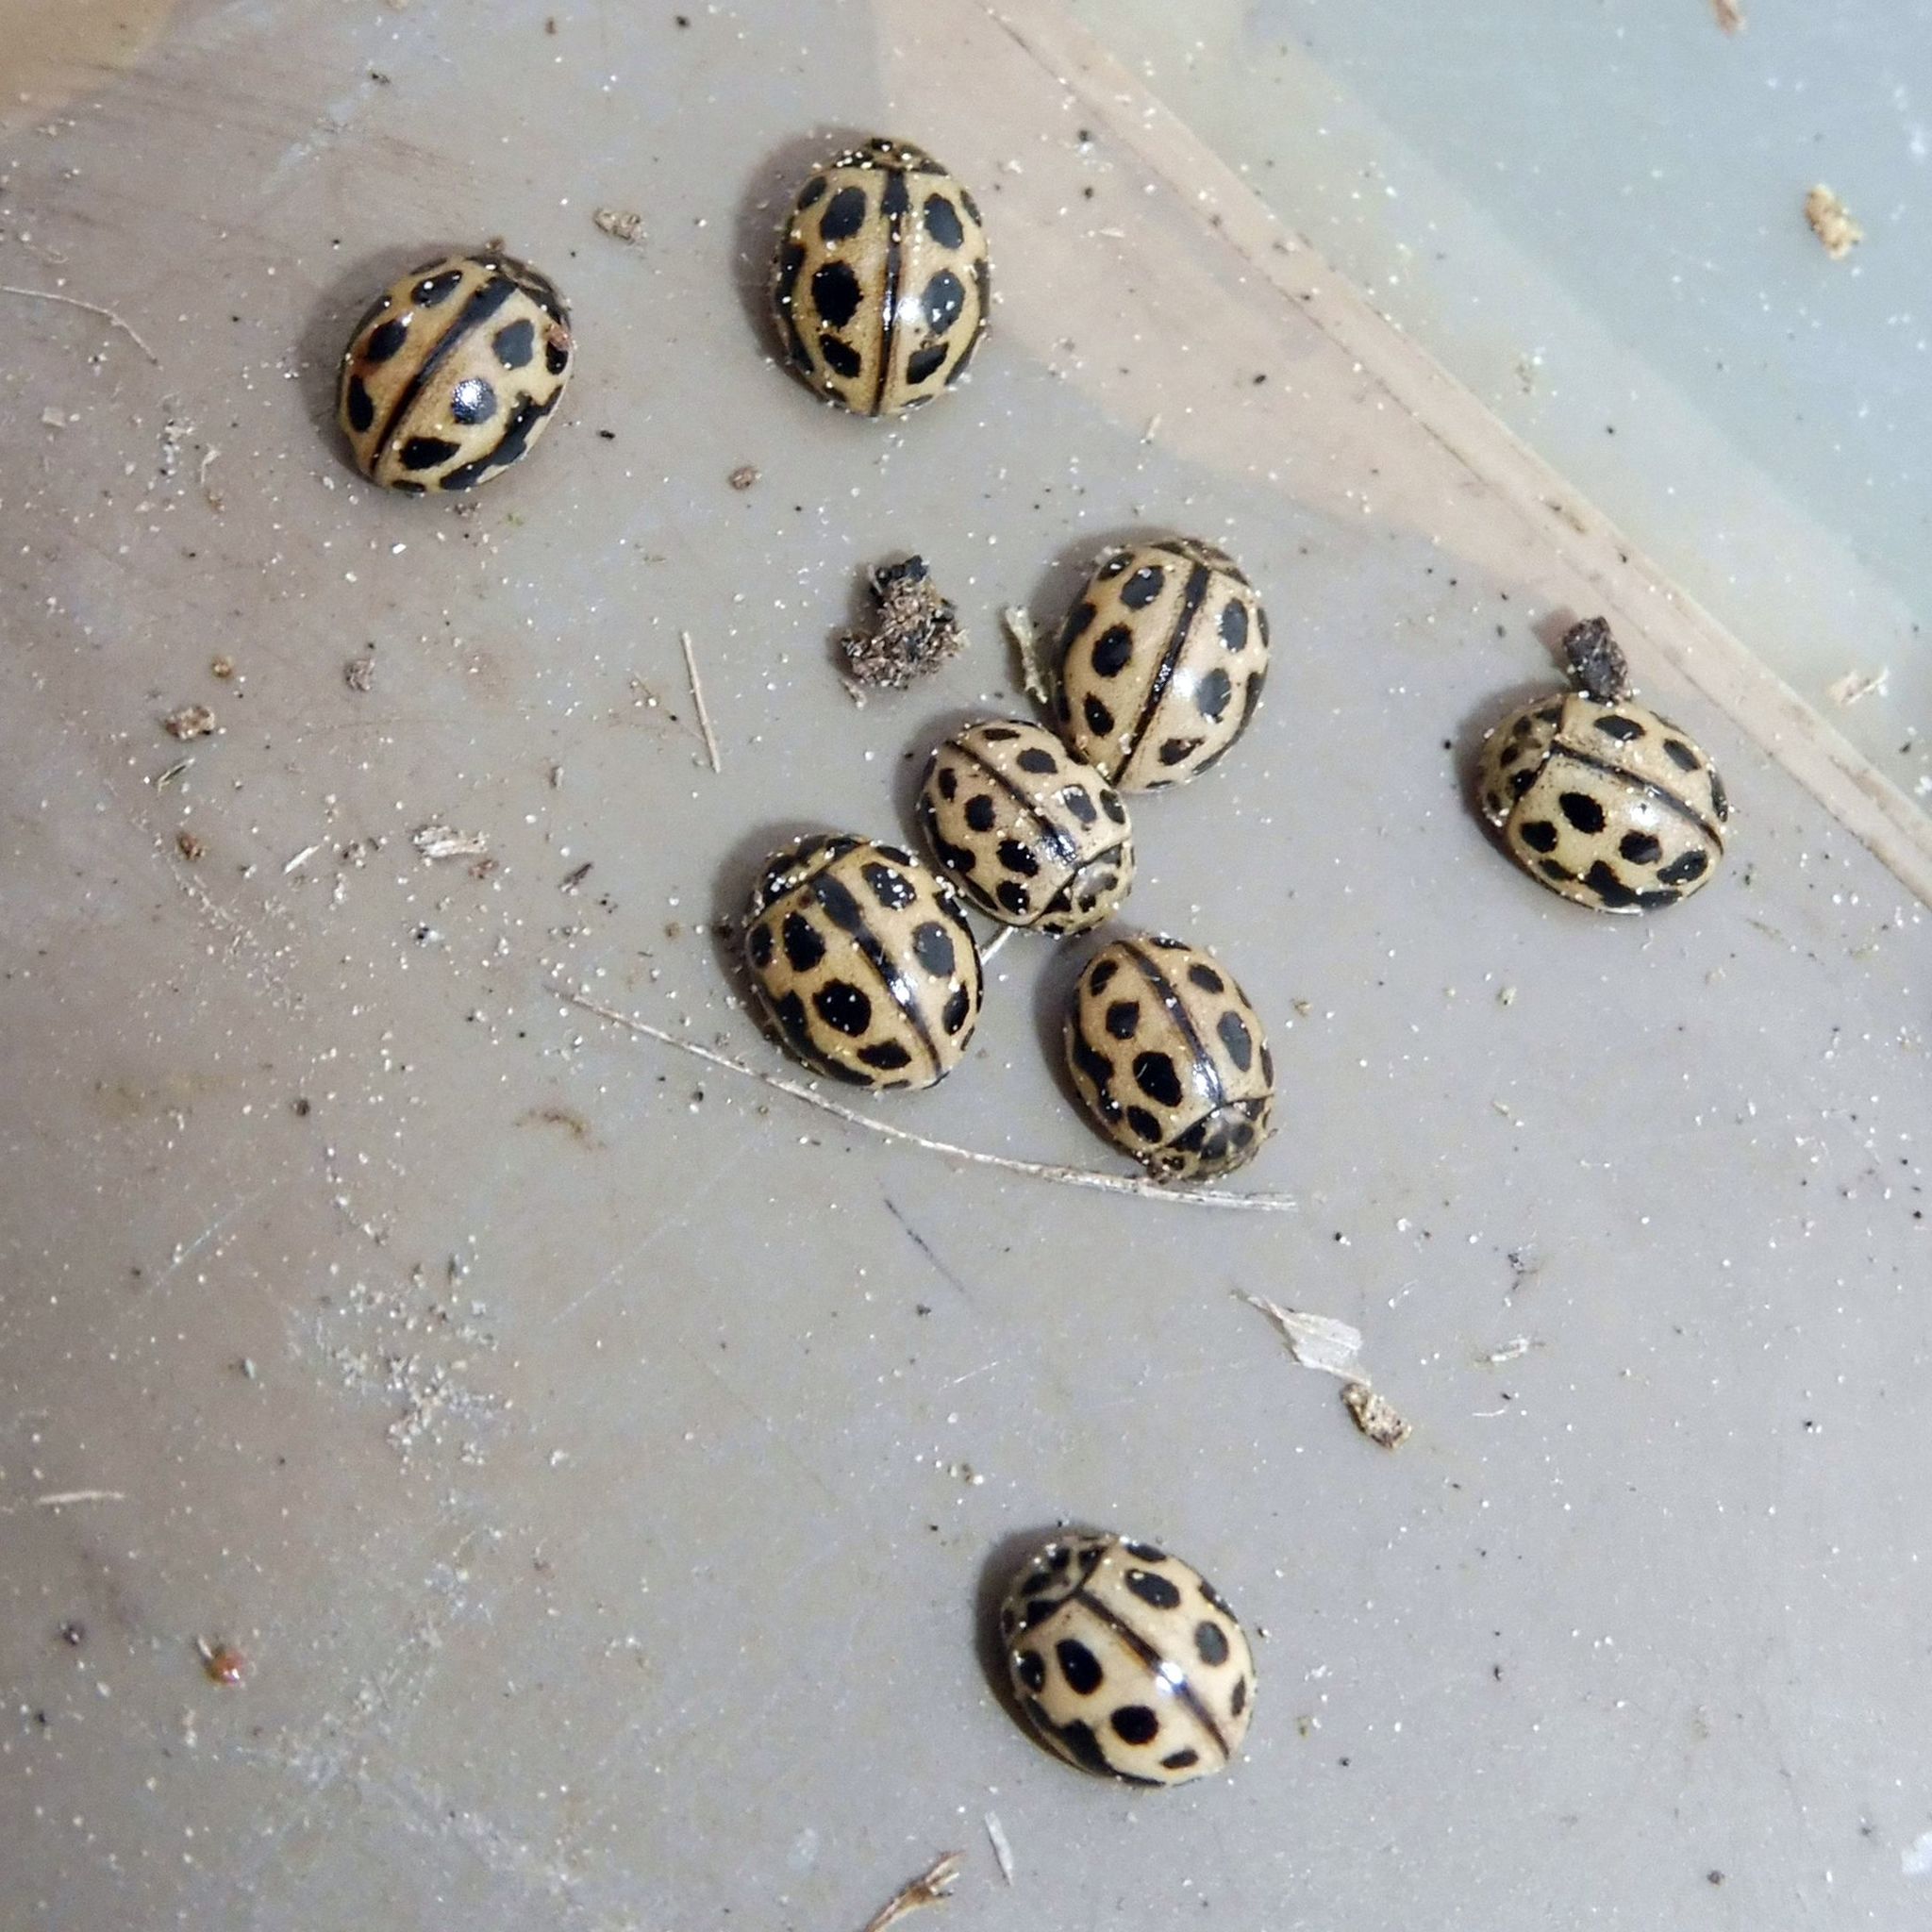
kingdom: Animalia
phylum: Arthropoda
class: Insecta
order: Coleoptera
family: Coccinellidae
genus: Tytthaspis
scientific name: Tytthaspis sedecimpunctata
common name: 16-spot ladybird
